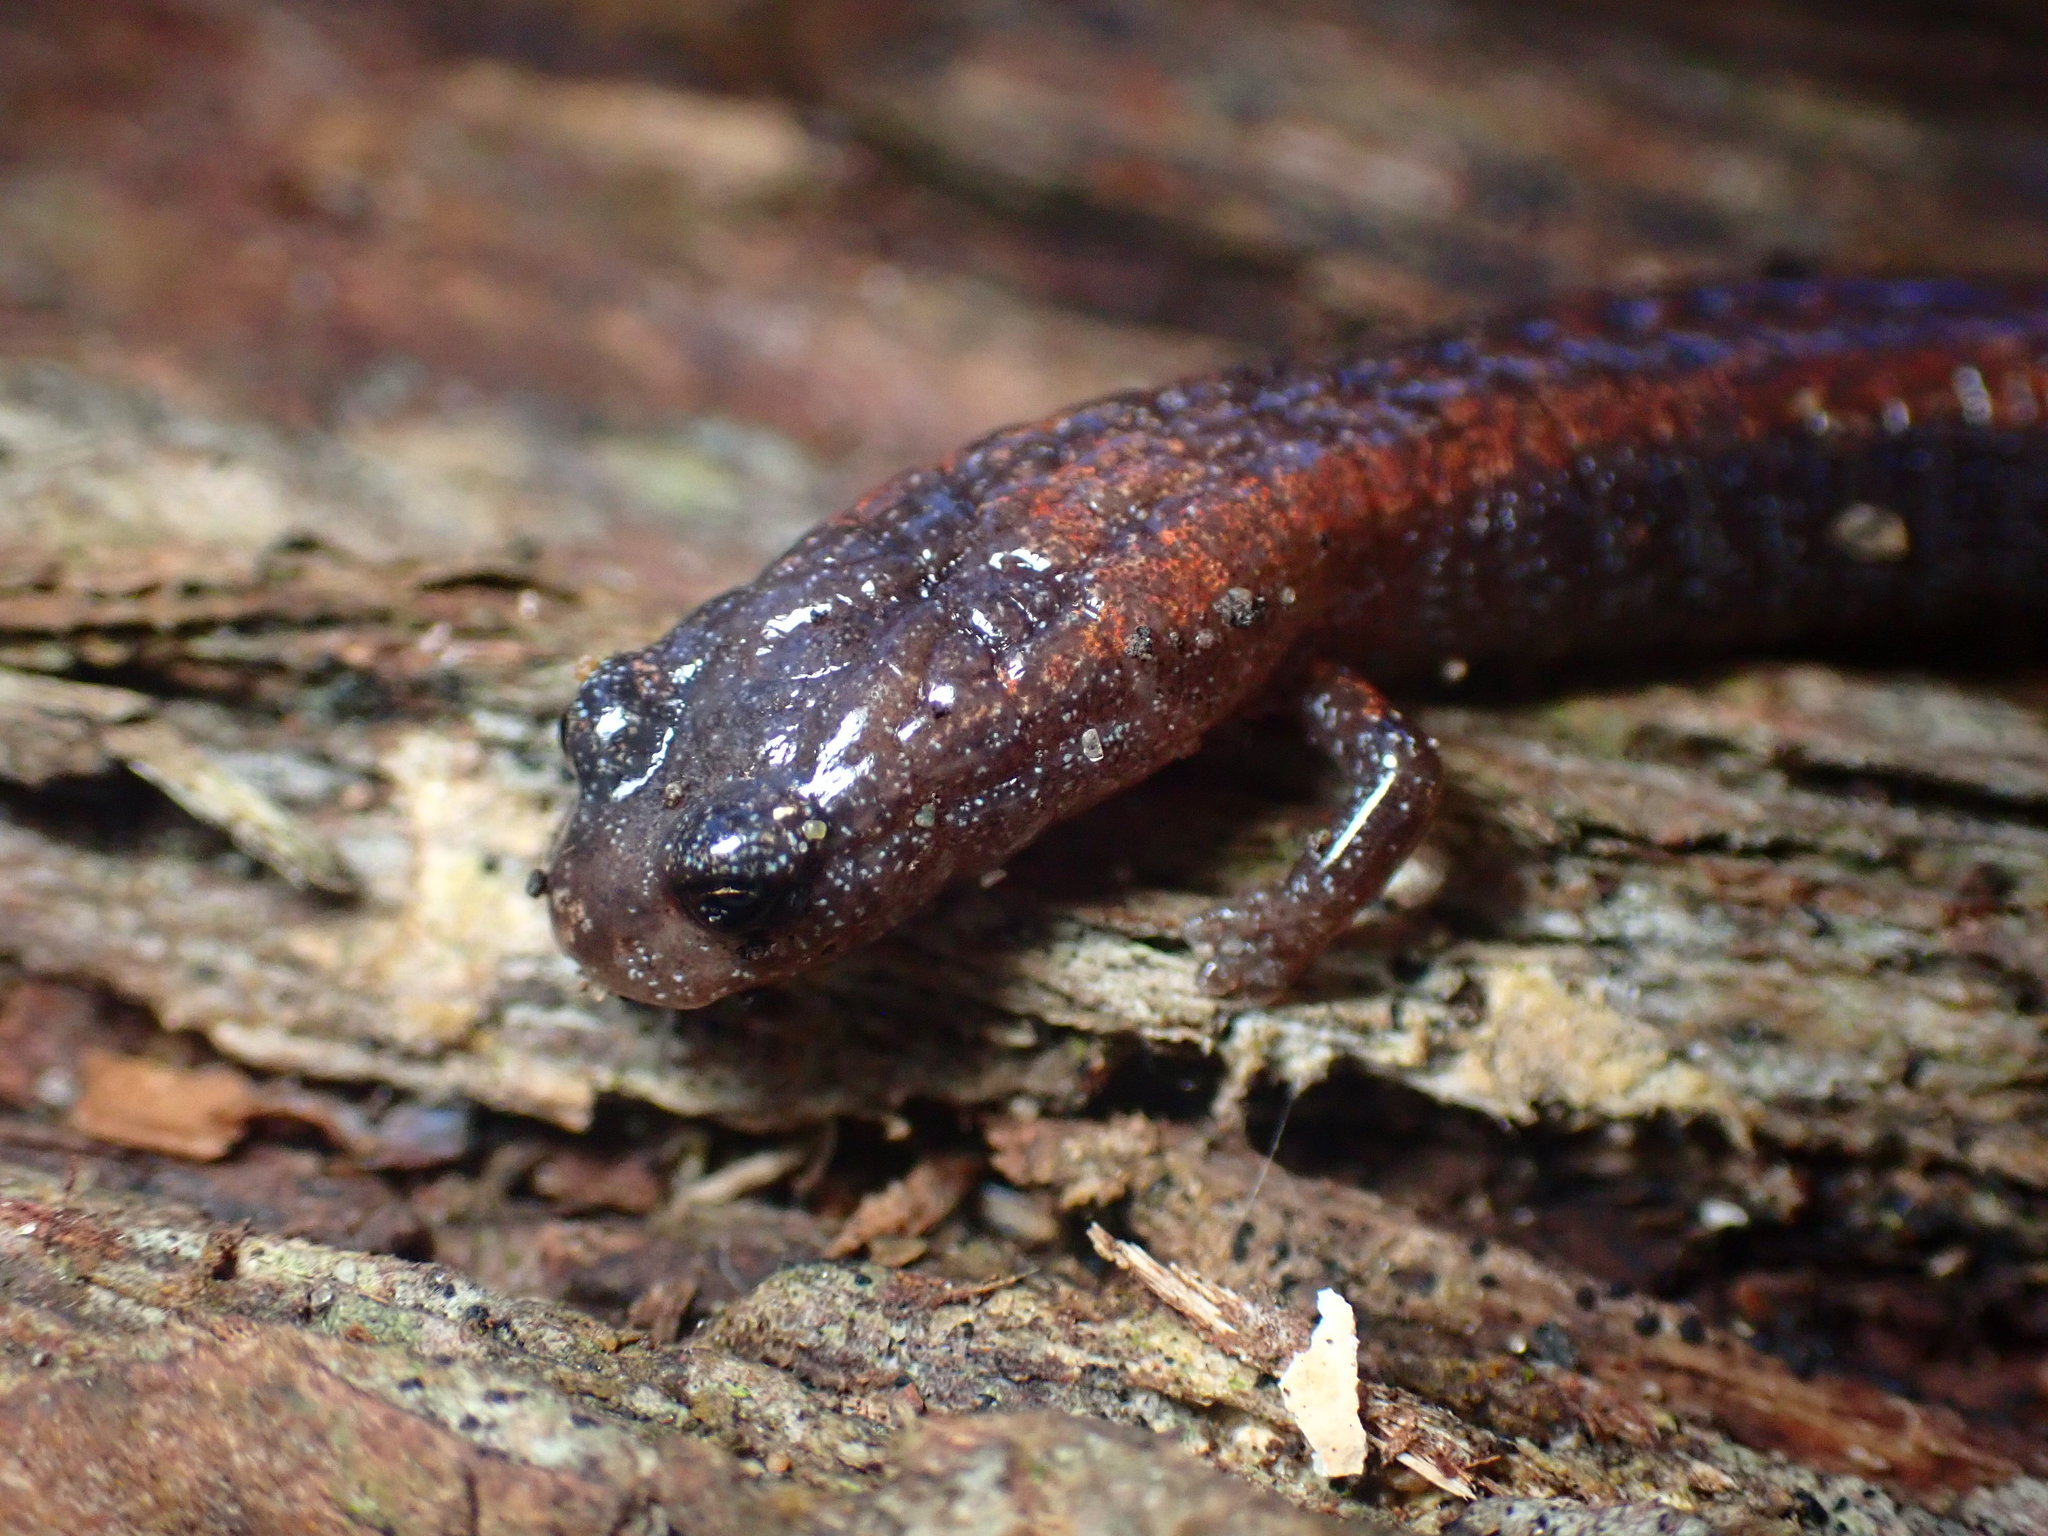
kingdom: Animalia
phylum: Chordata
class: Amphibia
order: Caudata
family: Plethodontidae
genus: Batrachoseps
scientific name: Batrachoseps attenuatus
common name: California slender salamander
